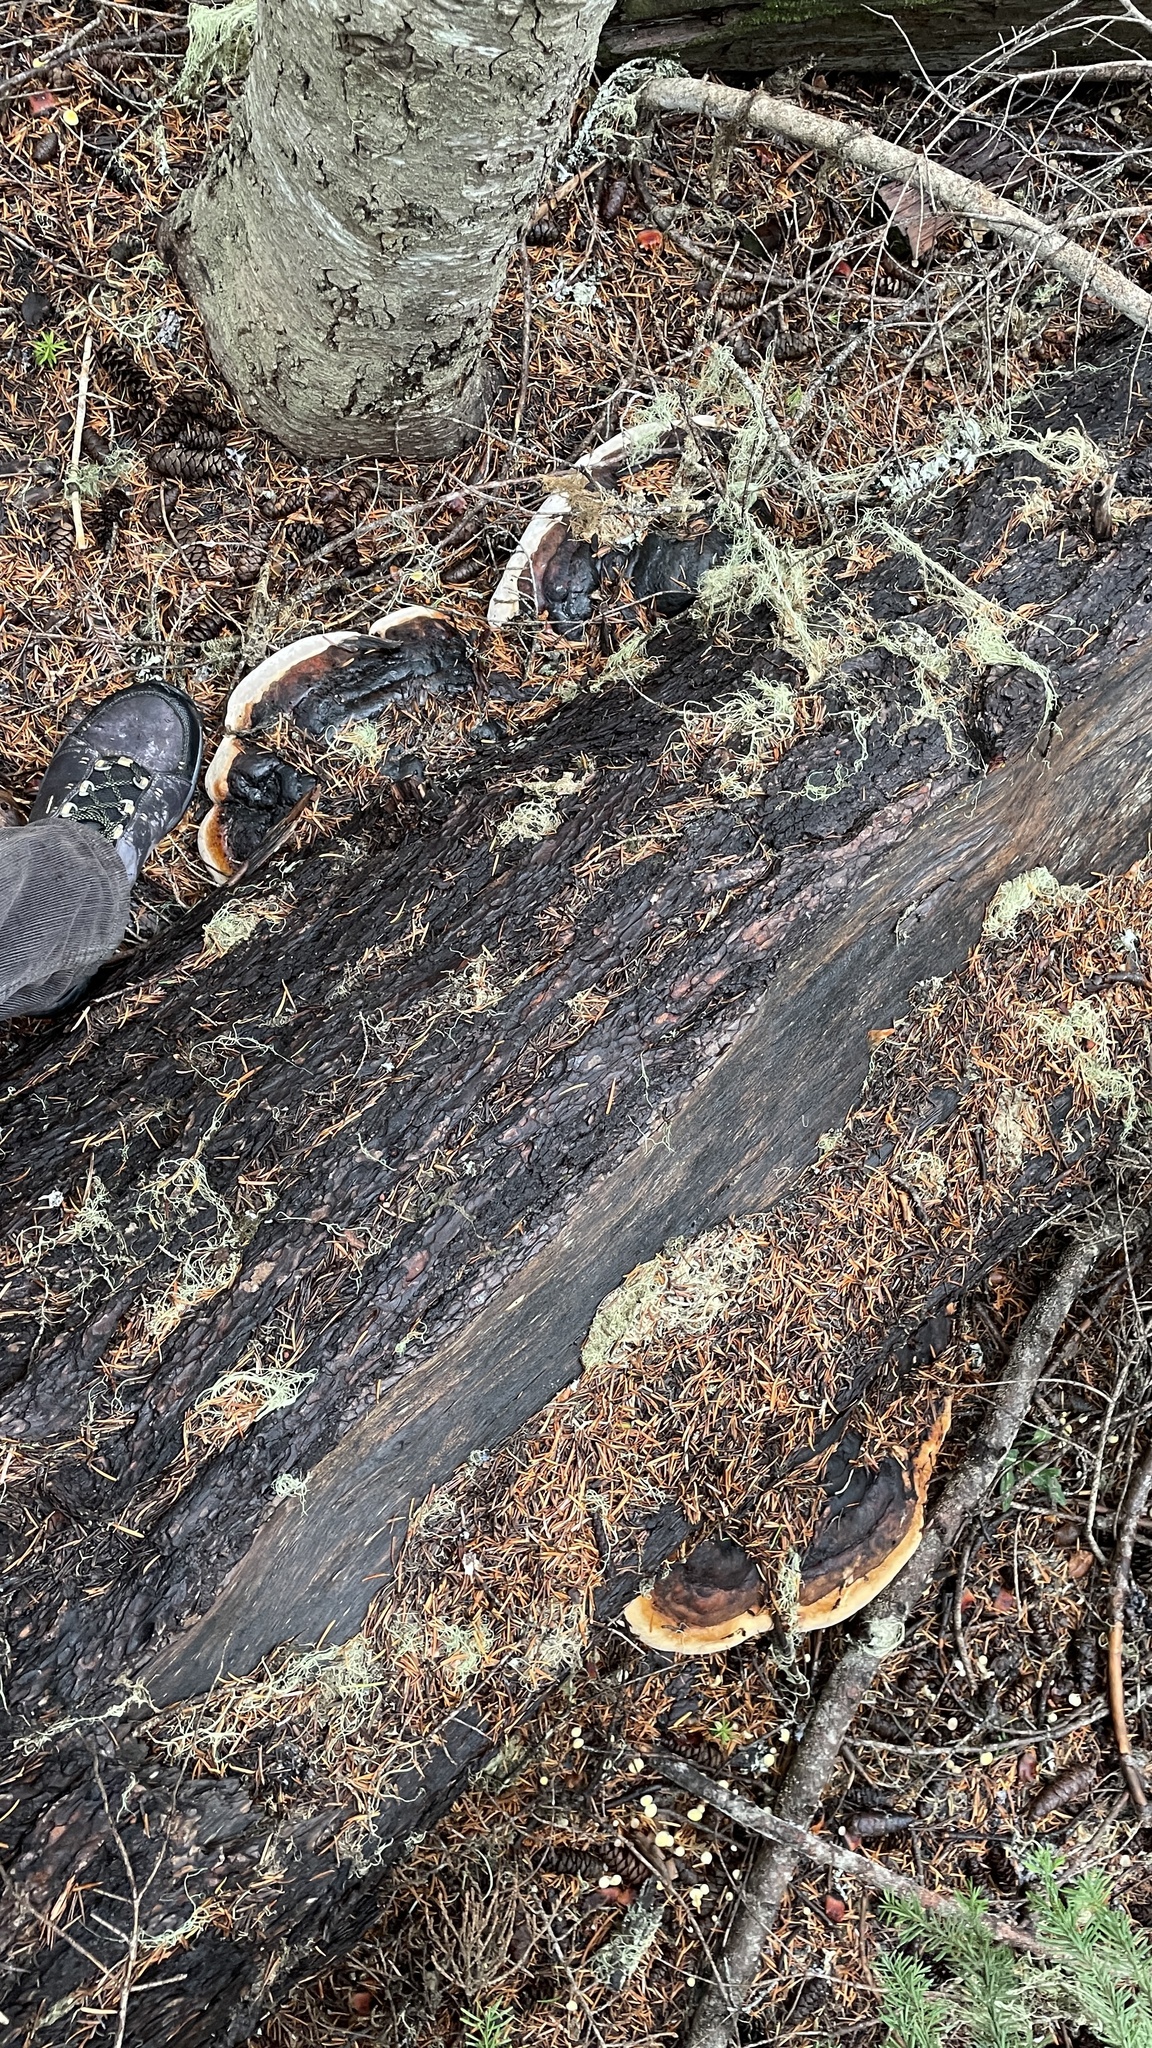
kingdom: Fungi
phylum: Basidiomycota
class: Agaricomycetes
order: Polyporales
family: Fomitopsidaceae
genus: Fomitopsis
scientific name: Fomitopsis mounceae
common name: Northern red belt
